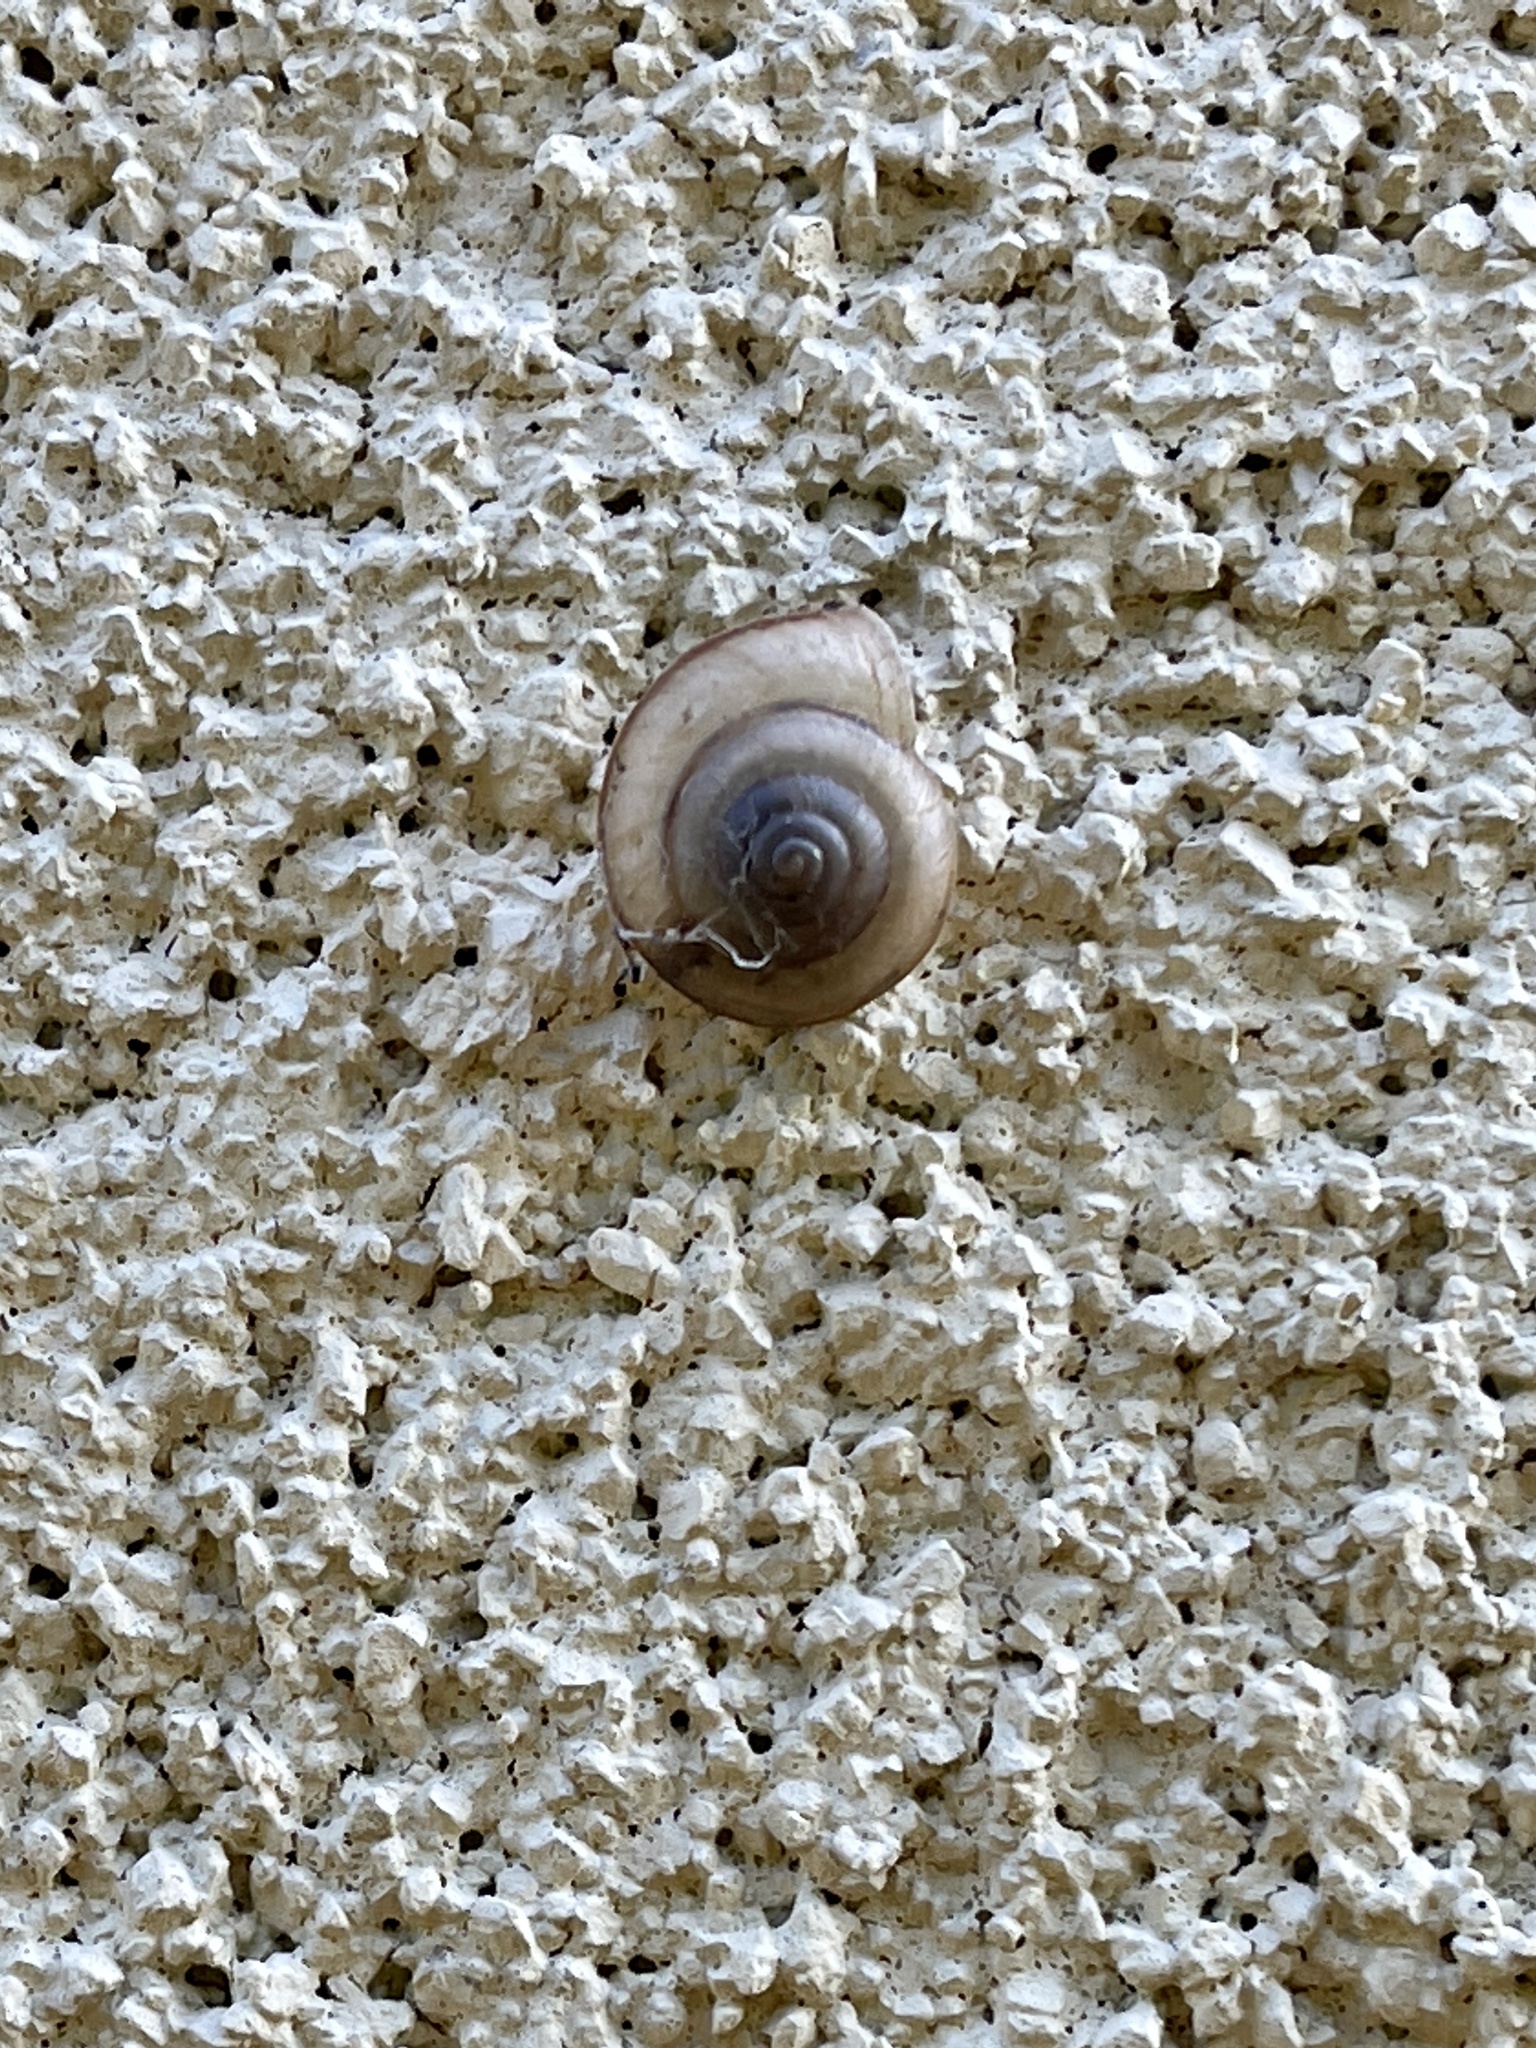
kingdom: Animalia
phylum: Mollusca
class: Gastropoda
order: Stylommatophora
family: Camaenidae
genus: Bradybaena
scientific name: Bradybaena similaris
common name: Asian trampsnail
